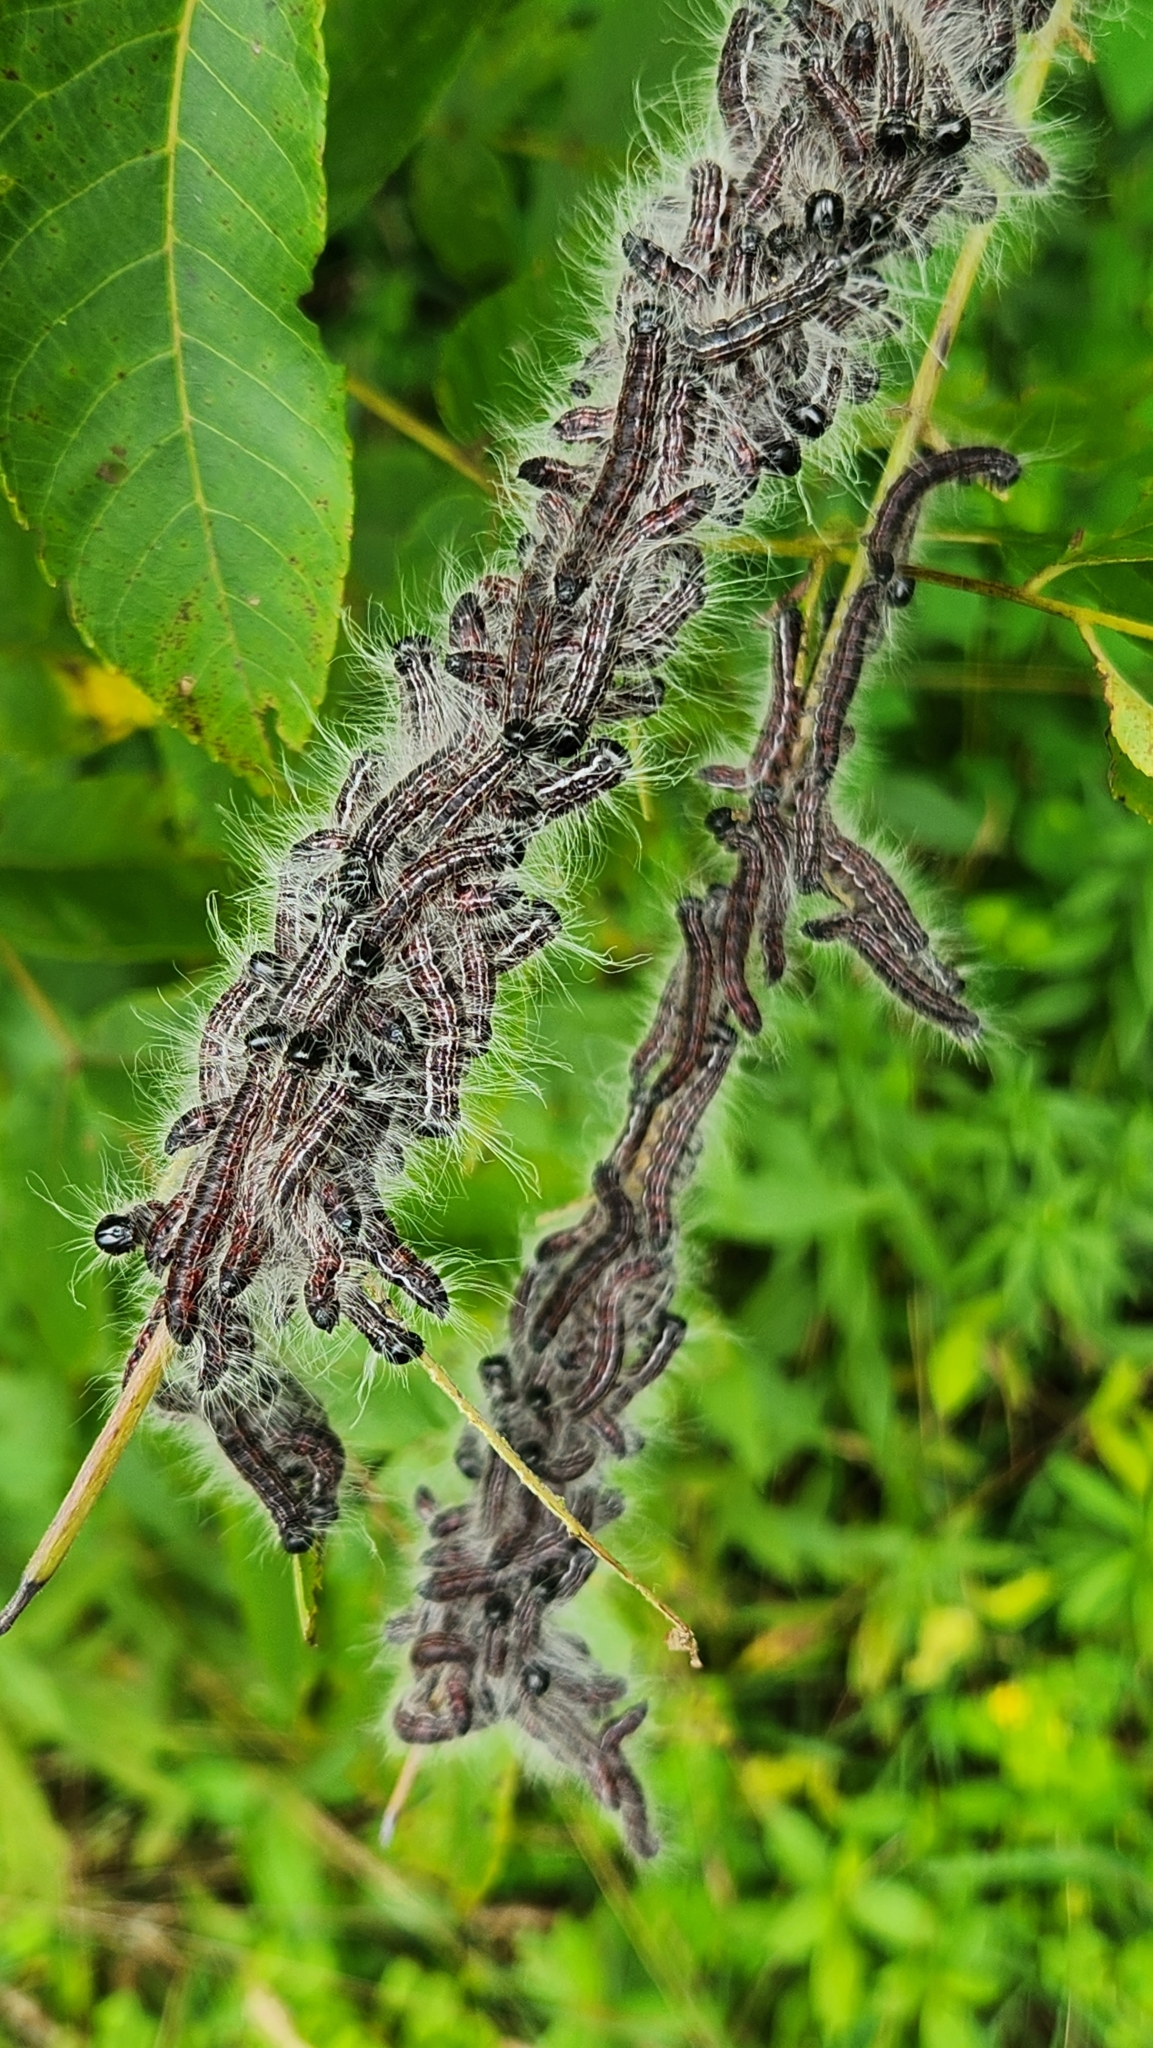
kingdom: Animalia
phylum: Arthropoda
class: Insecta
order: Lepidoptera
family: Notodontidae
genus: Datana
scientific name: Datana integerrima
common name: Walnut caterpillar
